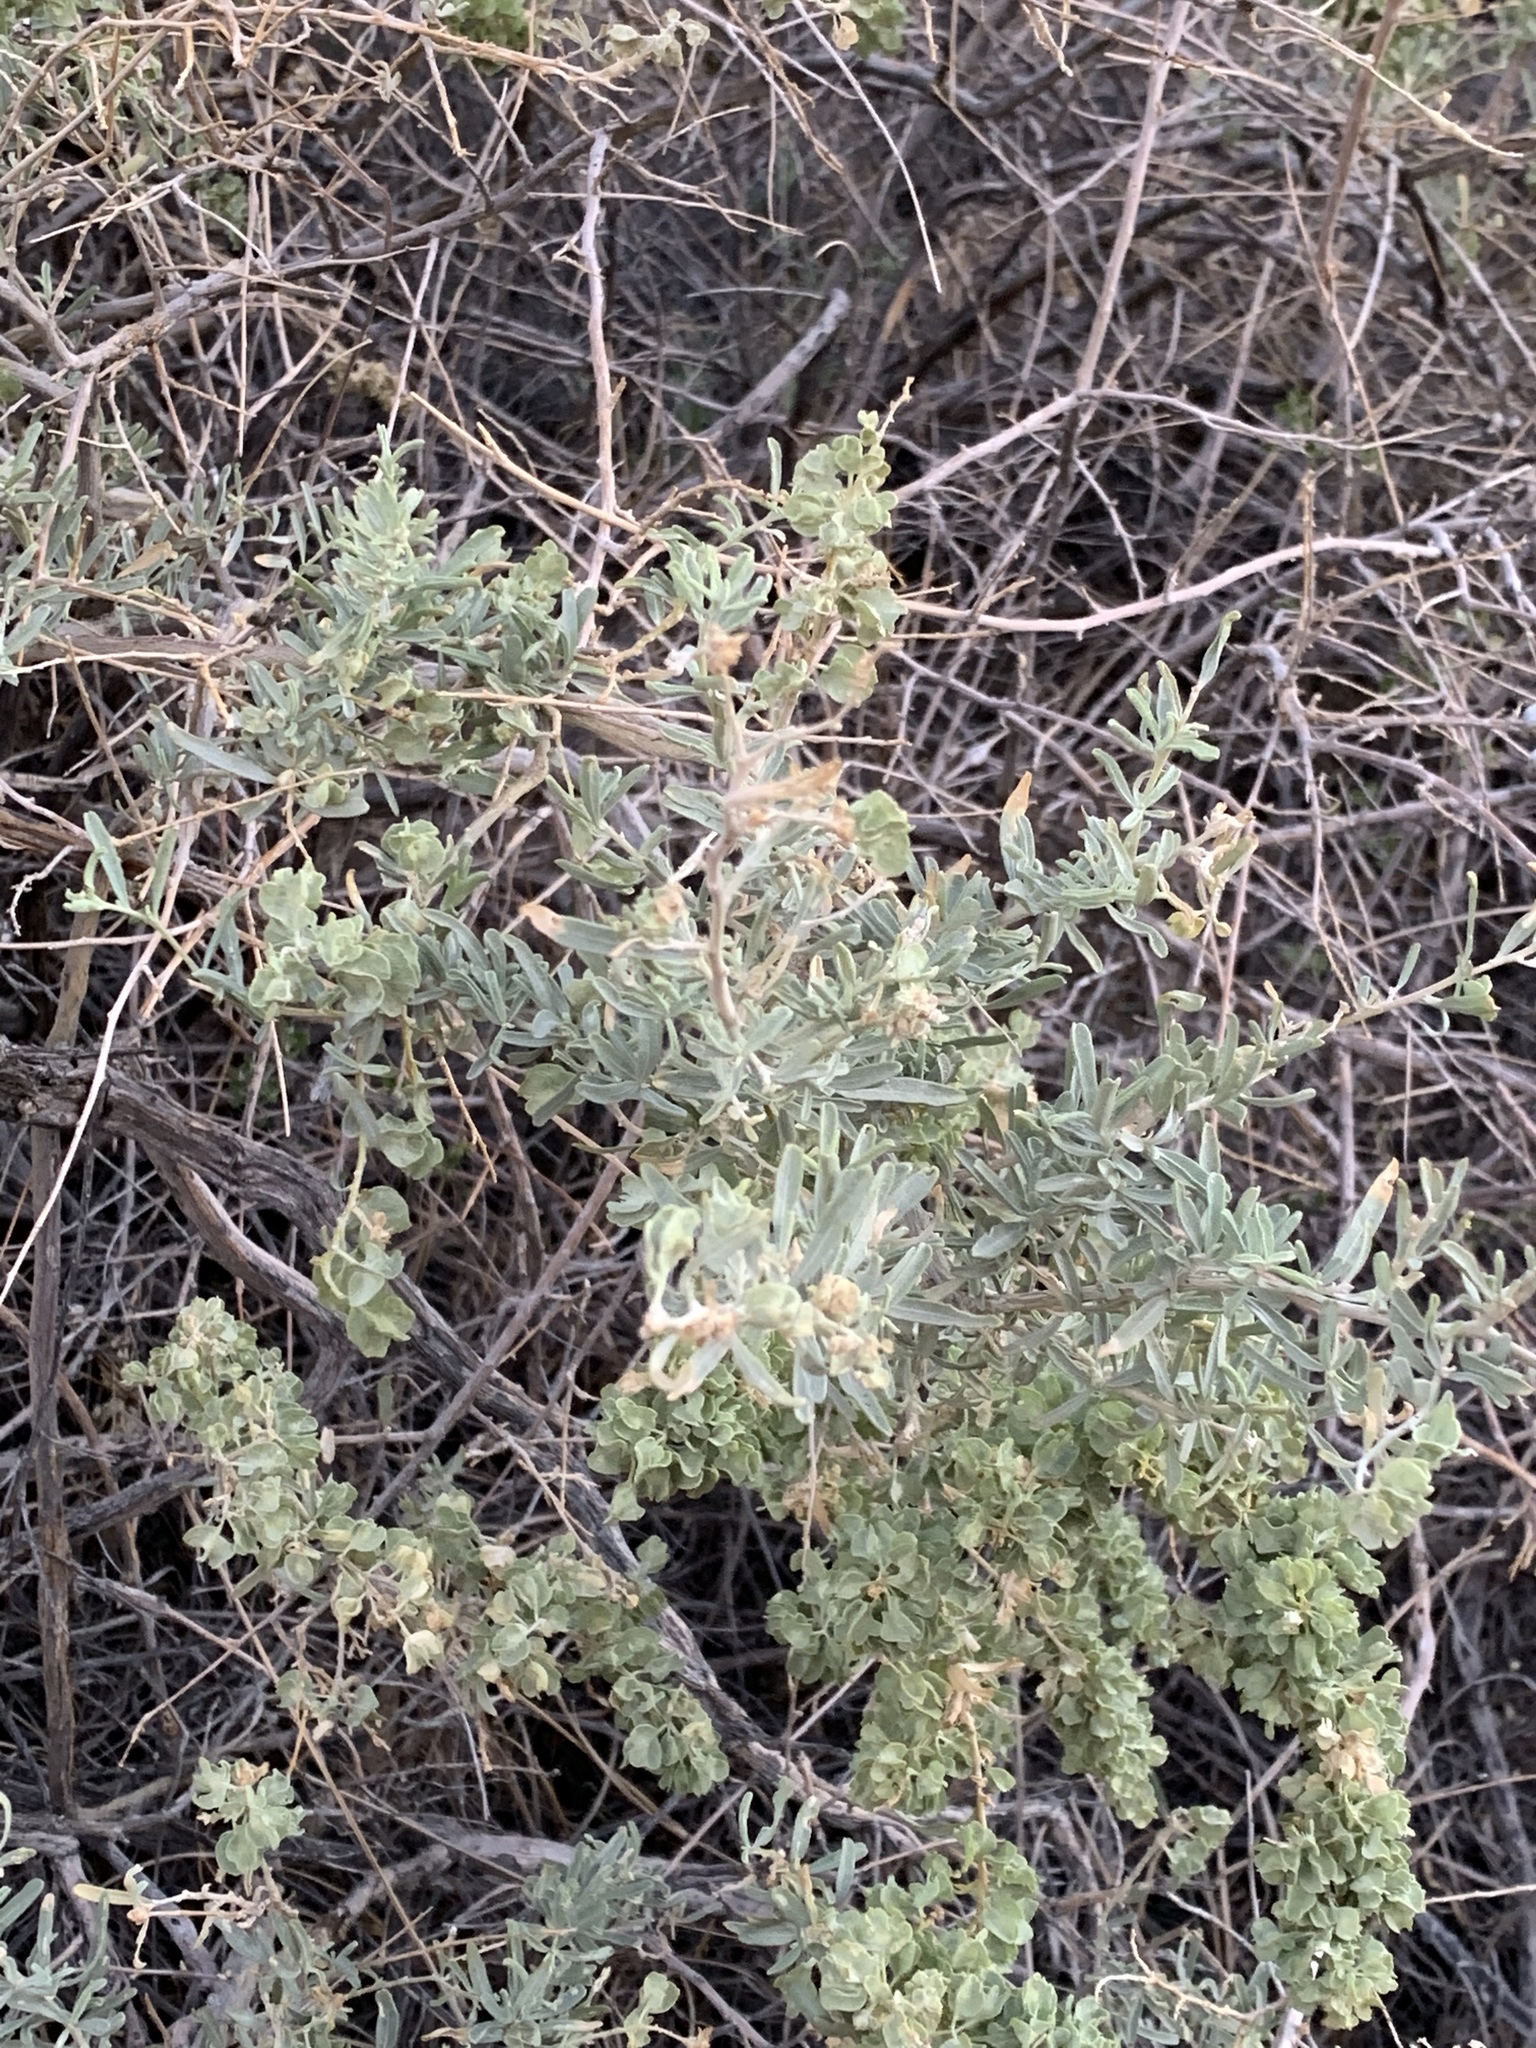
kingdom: Plantae
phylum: Tracheophyta
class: Magnoliopsida
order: Caryophyllales
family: Amaranthaceae
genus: Atriplex
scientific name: Atriplex canescens
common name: Four-wing saltbush
